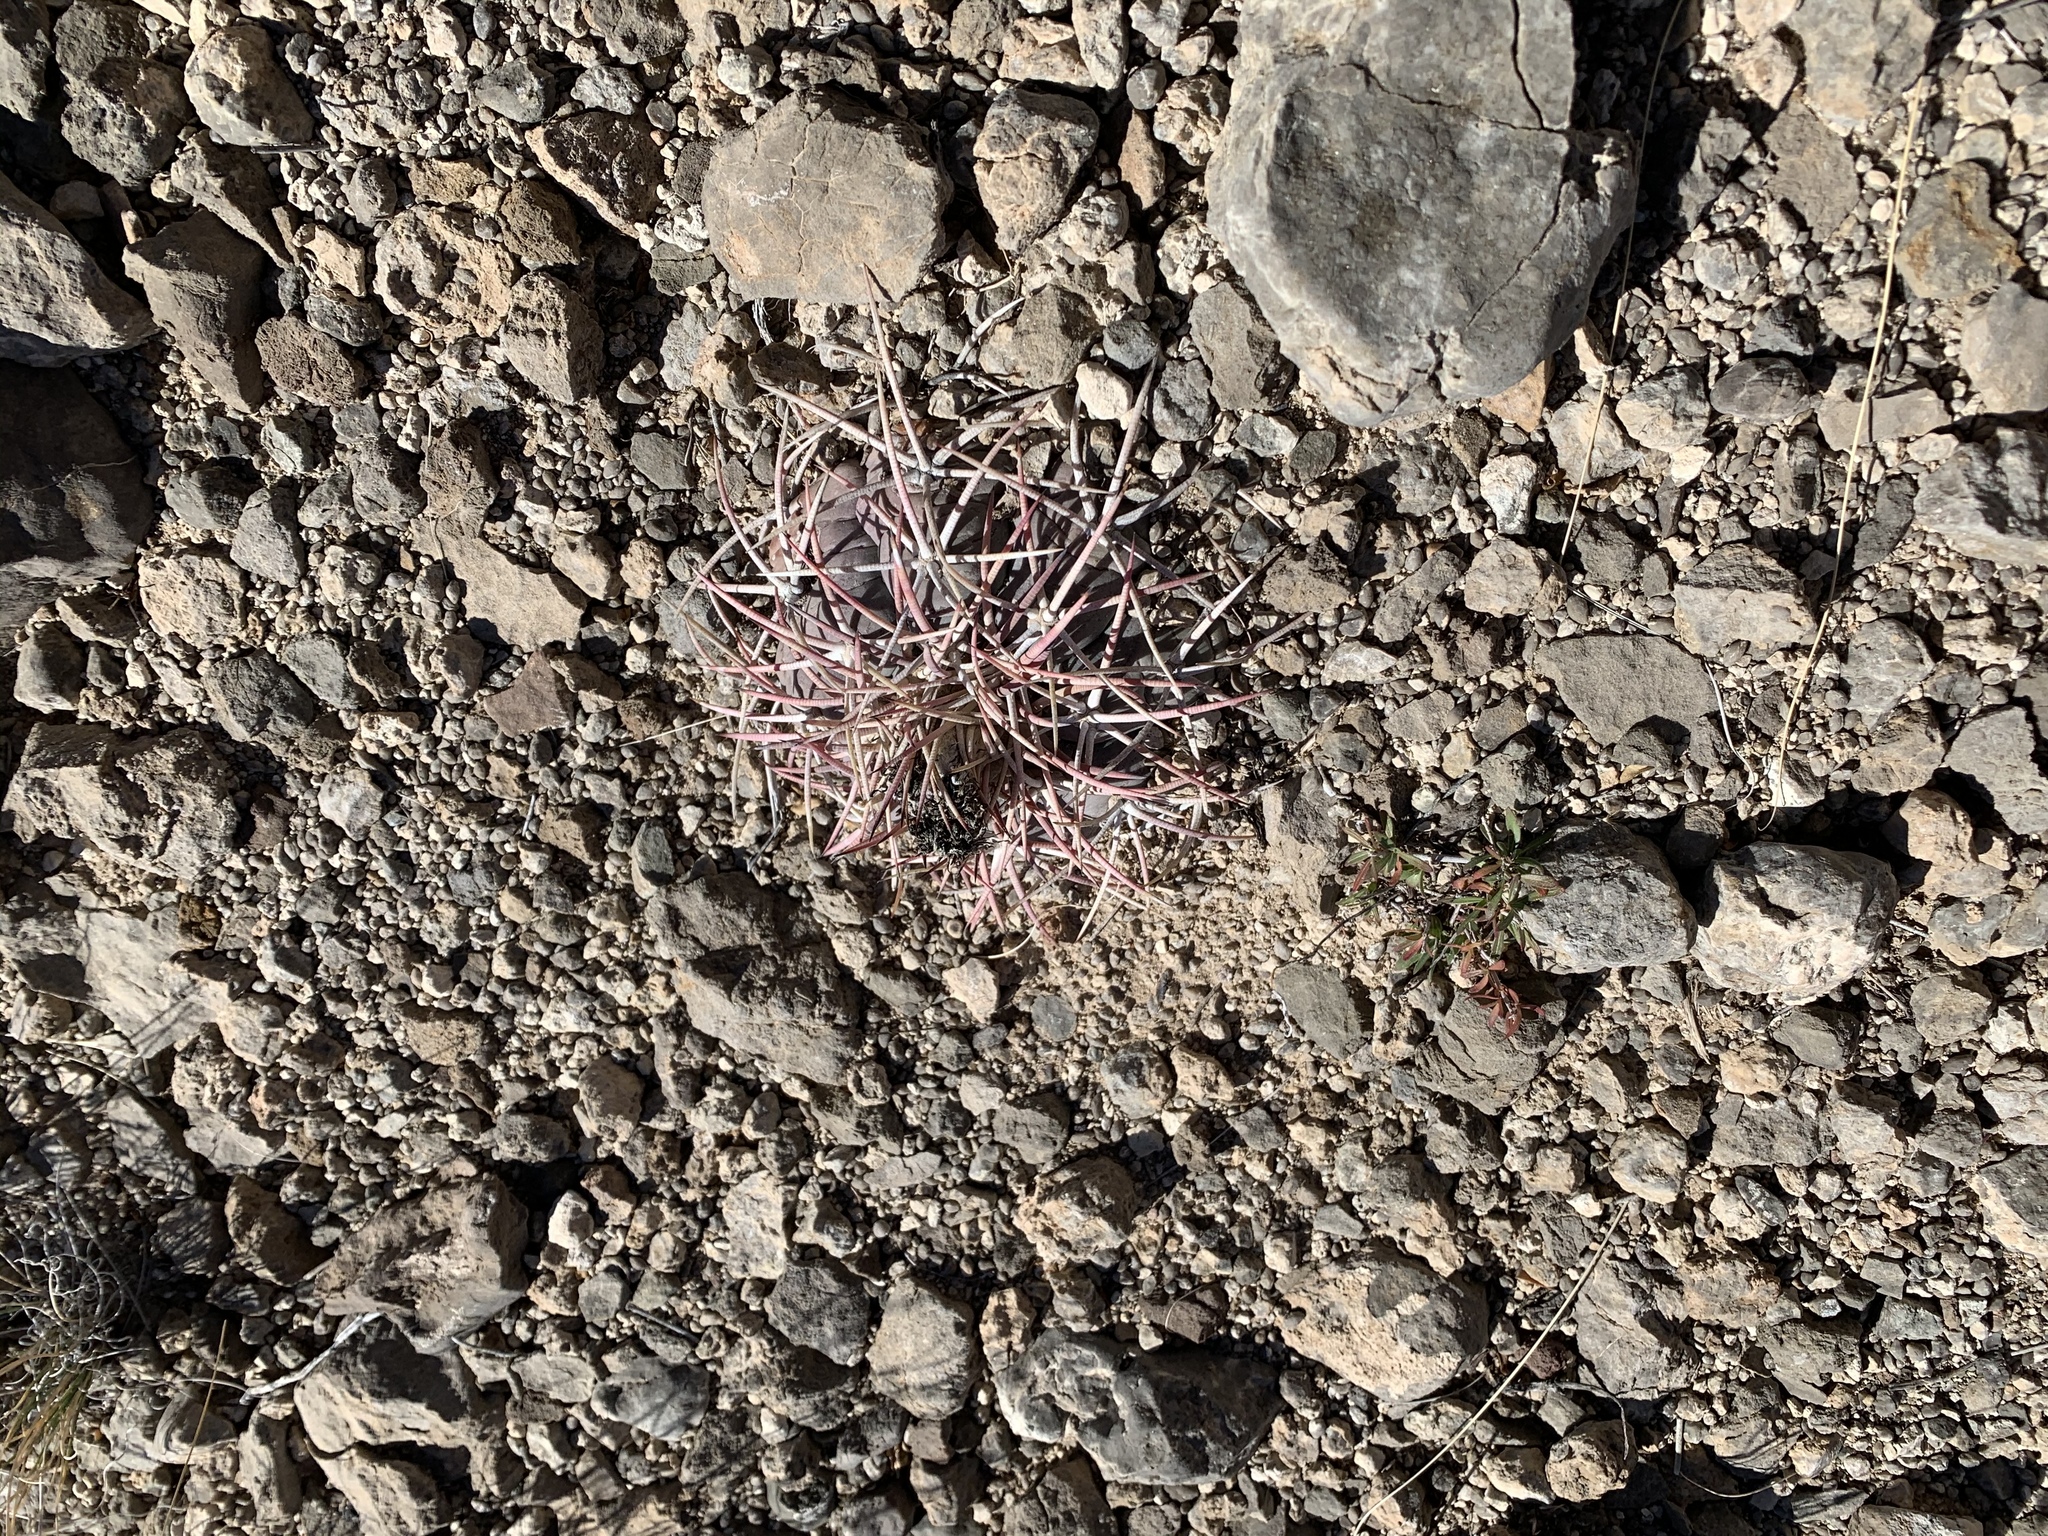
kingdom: Plantae
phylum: Tracheophyta
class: Magnoliopsida
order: Caryophyllales
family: Cactaceae
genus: Echinocactus
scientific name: Echinocactus horizonthalonius
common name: Devilshead
